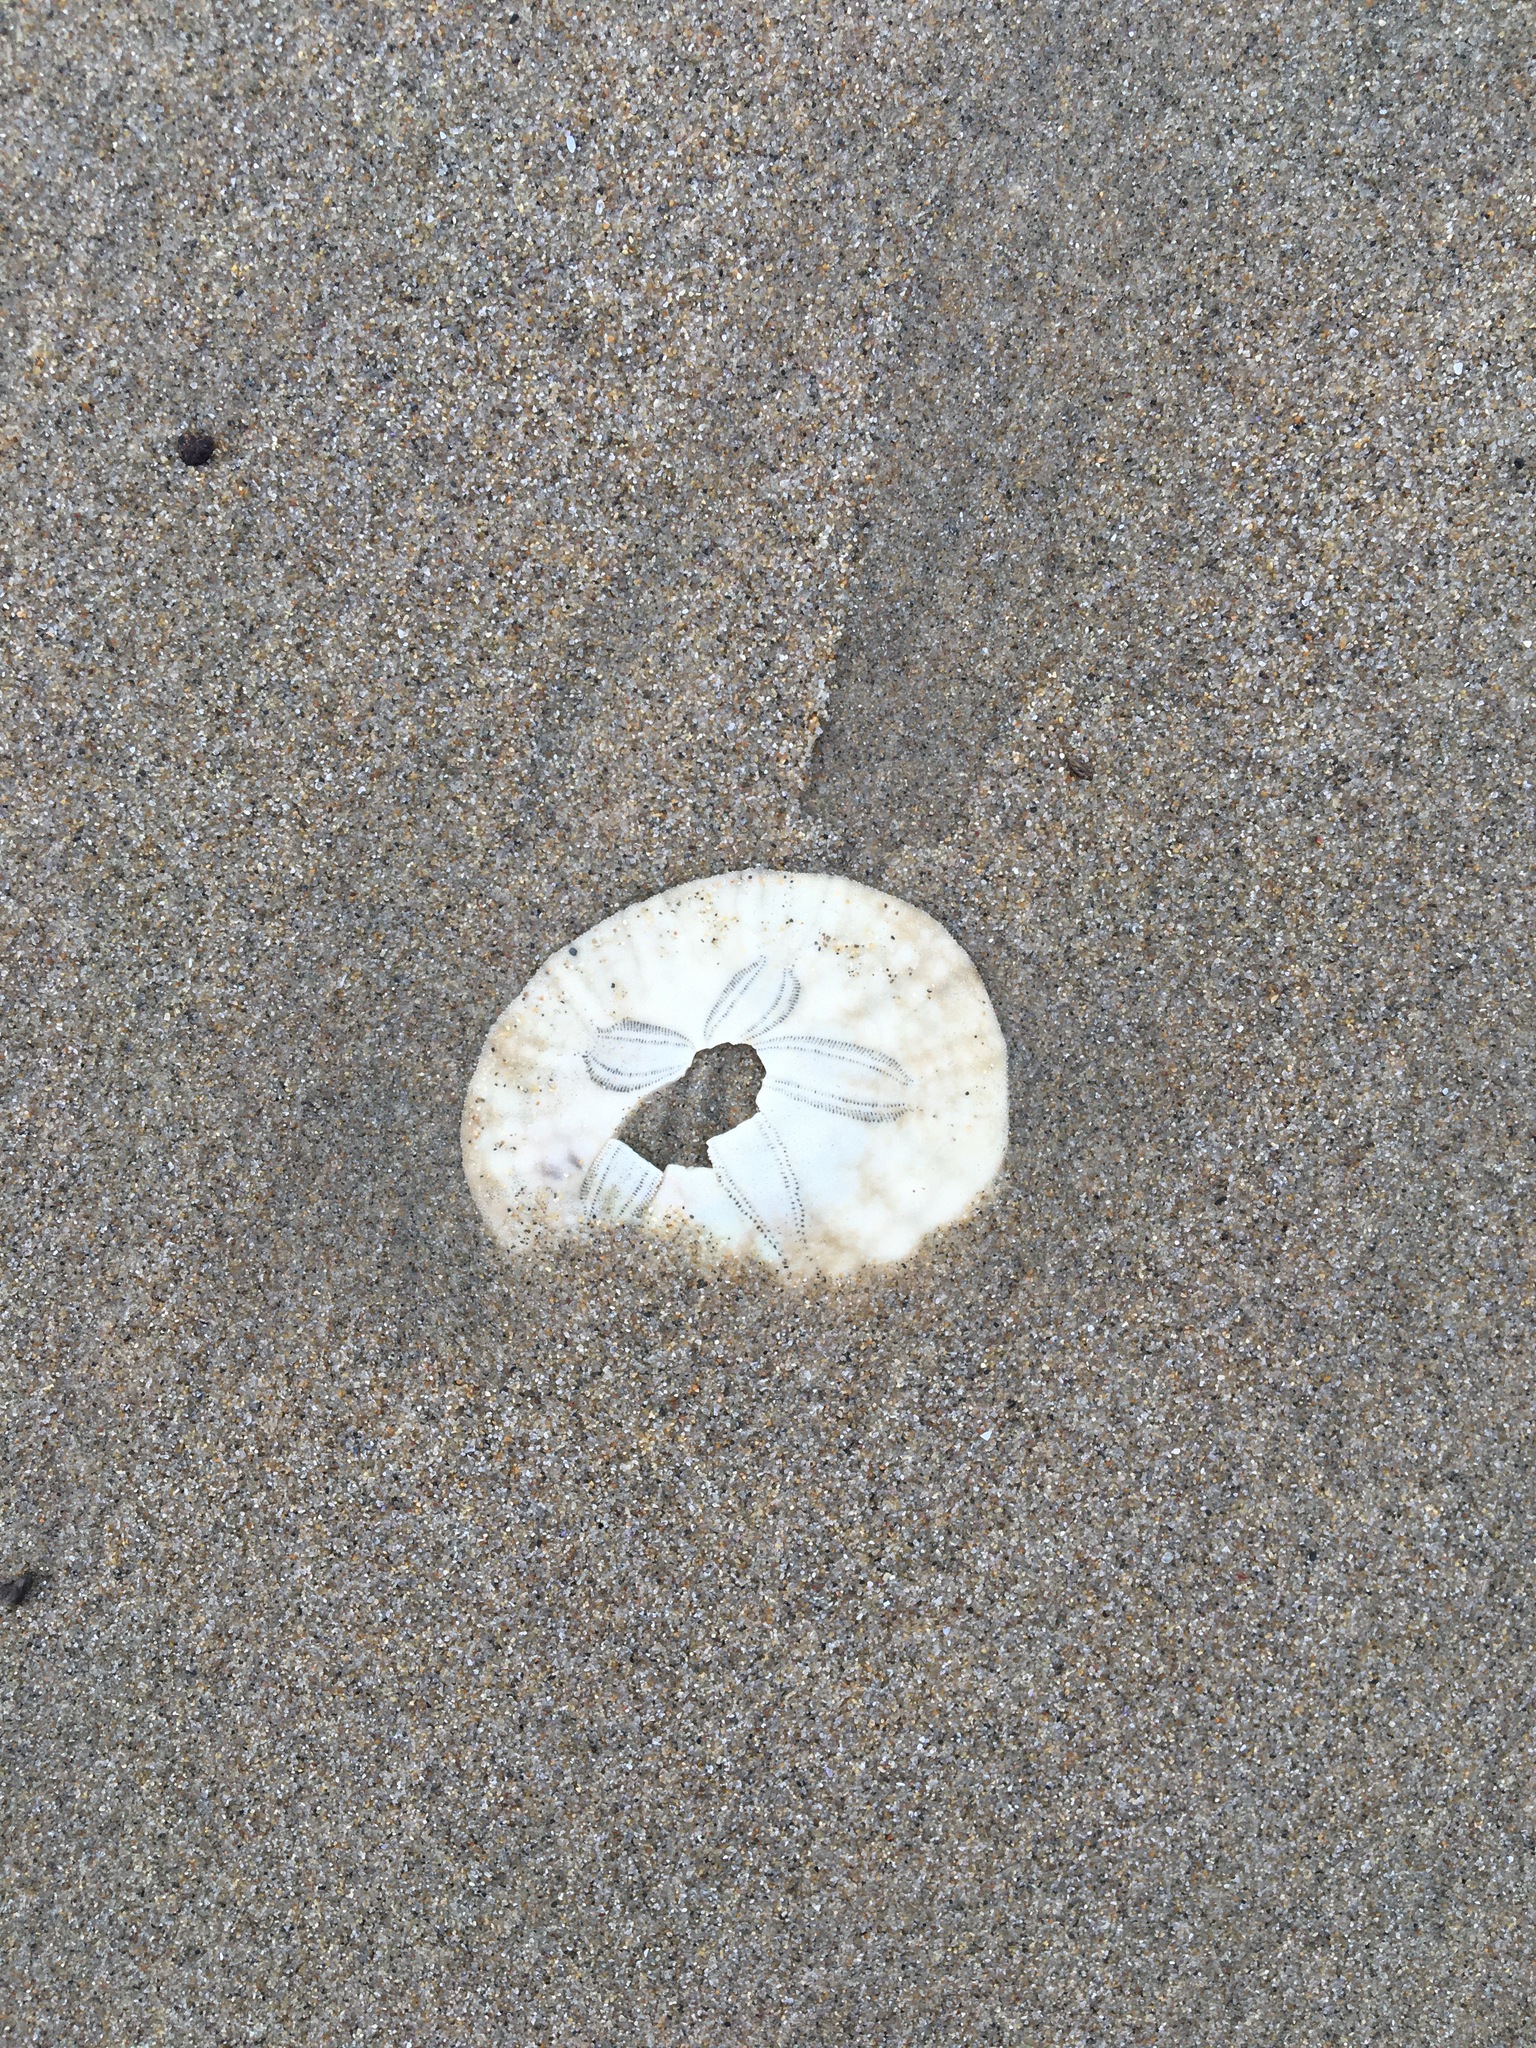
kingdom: Animalia
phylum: Echinodermata
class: Echinoidea
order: Echinolampadacea
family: Dendrasteridae
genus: Dendraster
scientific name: Dendraster excentricus
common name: Eccentric sand dollar sea urchin
